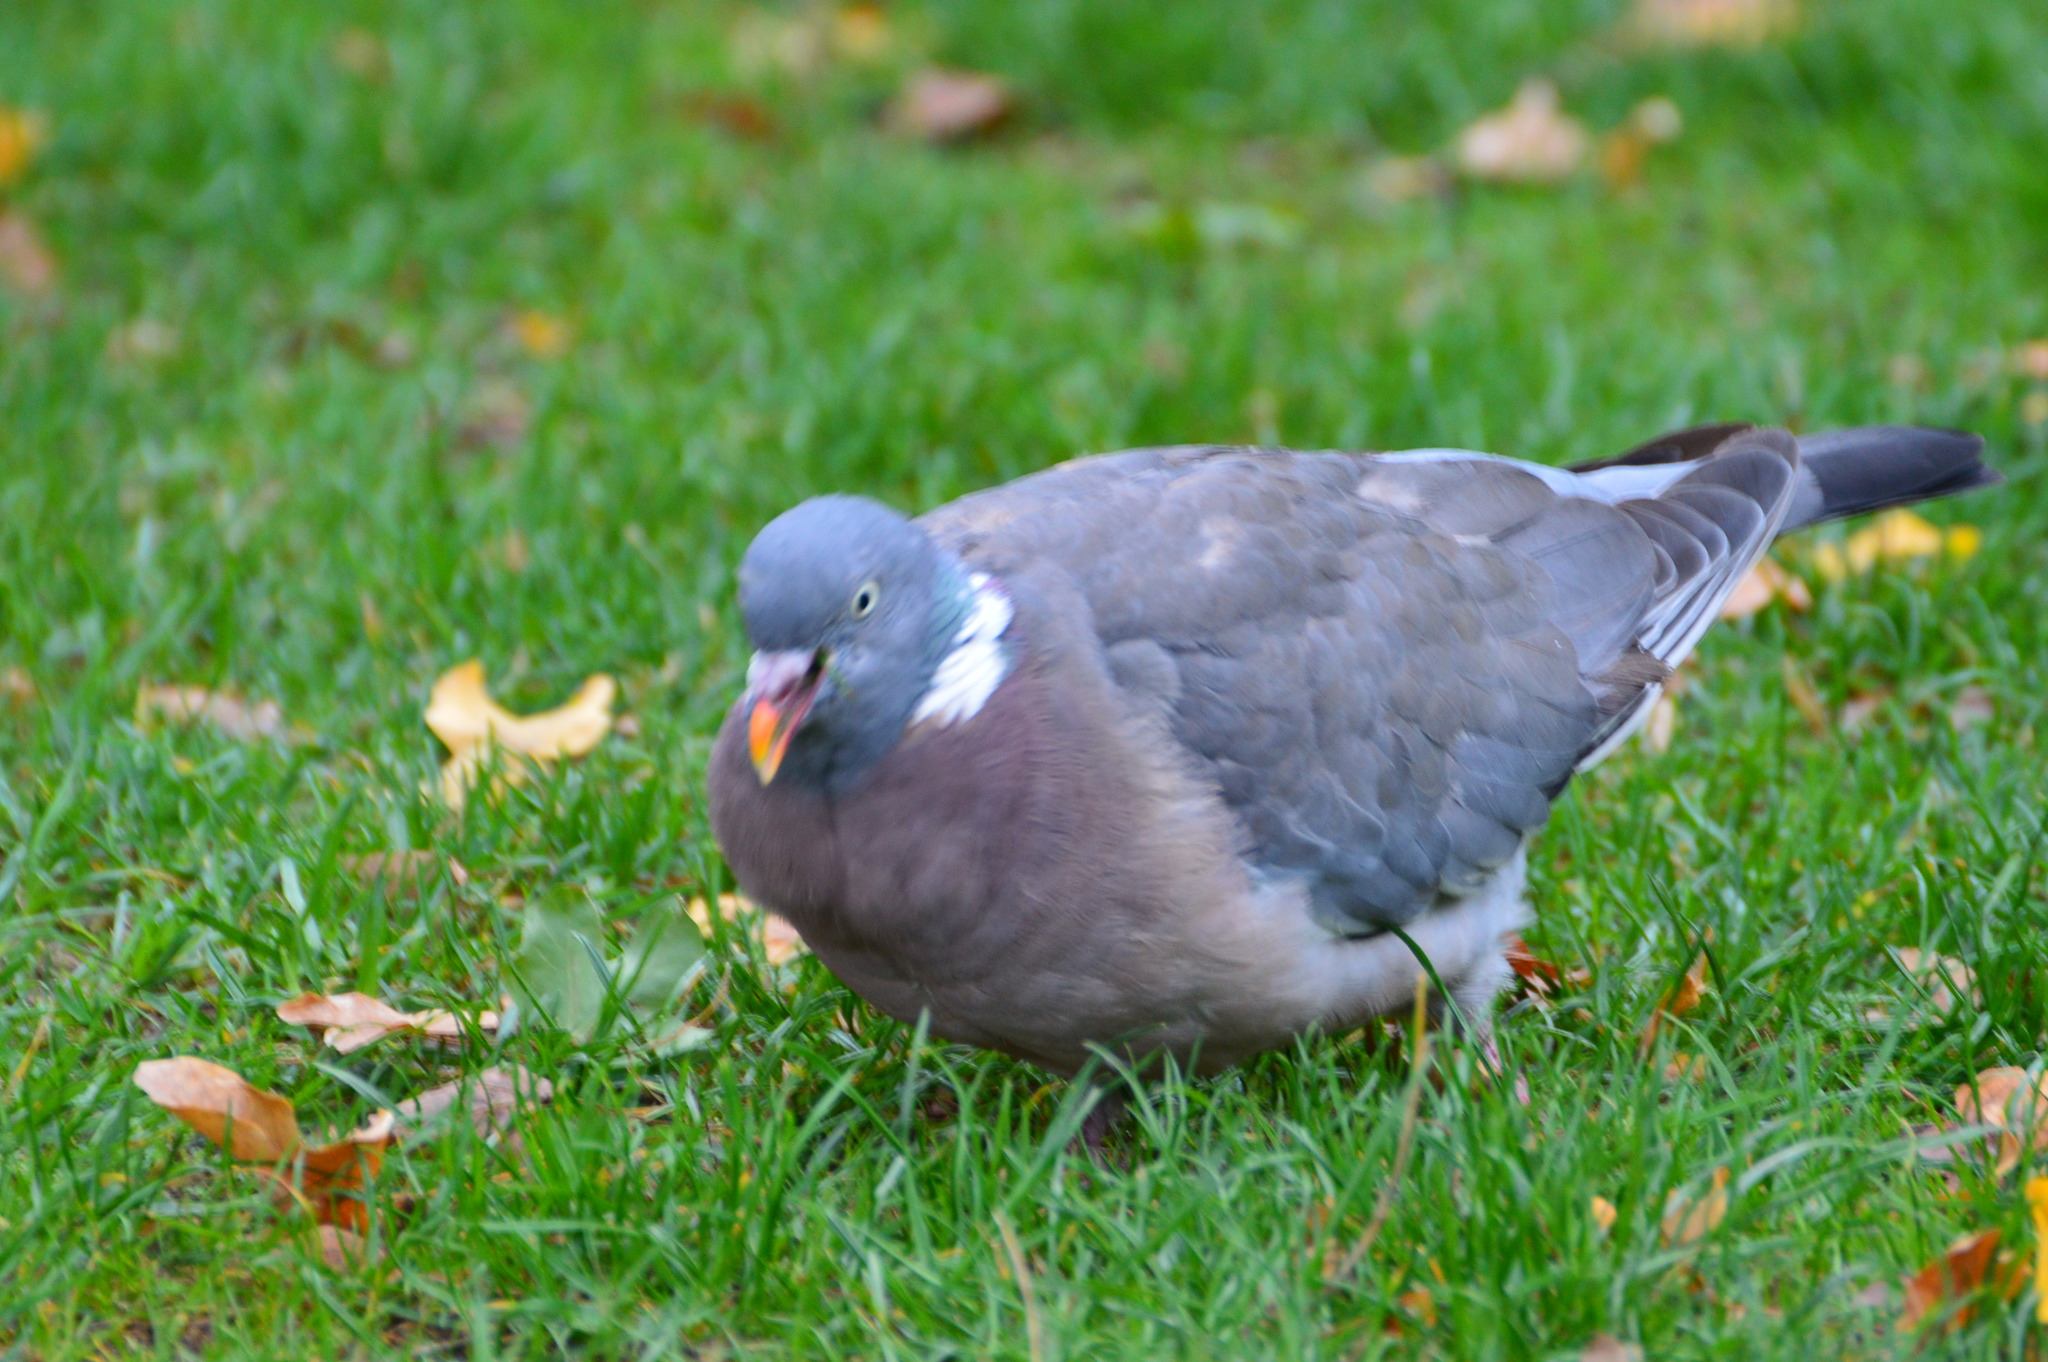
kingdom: Animalia
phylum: Chordata
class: Aves
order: Columbiformes
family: Columbidae
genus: Columba
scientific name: Columba palumbus
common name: Common wood pigeon
